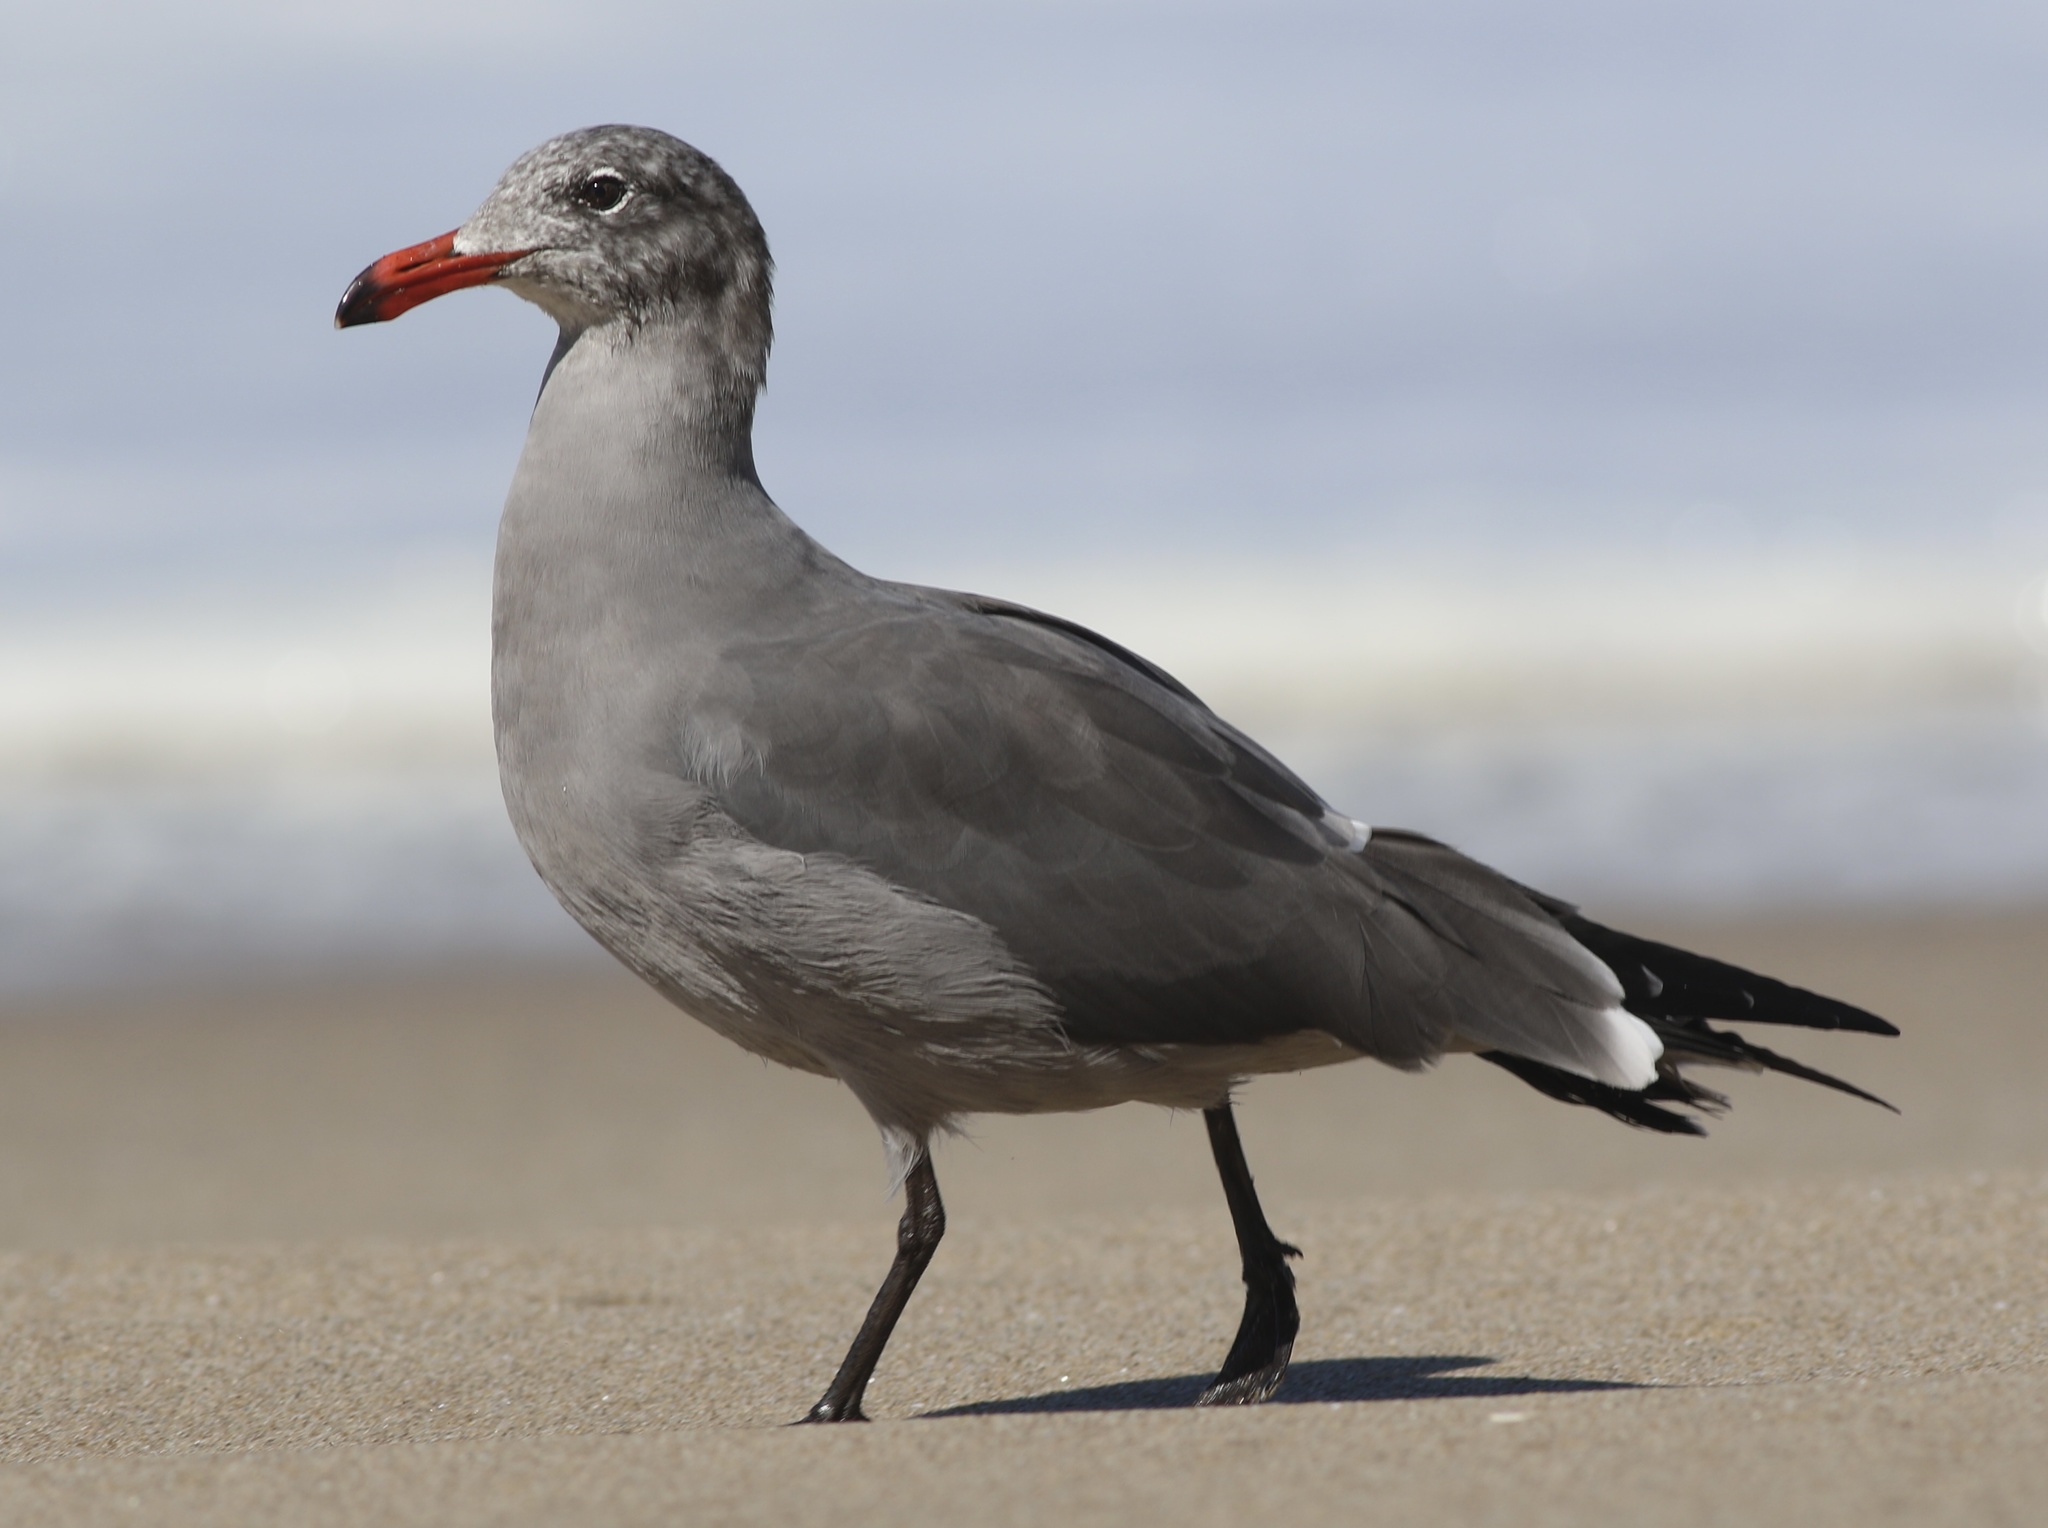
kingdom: Animalia
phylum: Chordata
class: Aves
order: Charadriiformes
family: Laridae
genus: Larus
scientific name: Larus heermanni
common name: Heermann's gull
